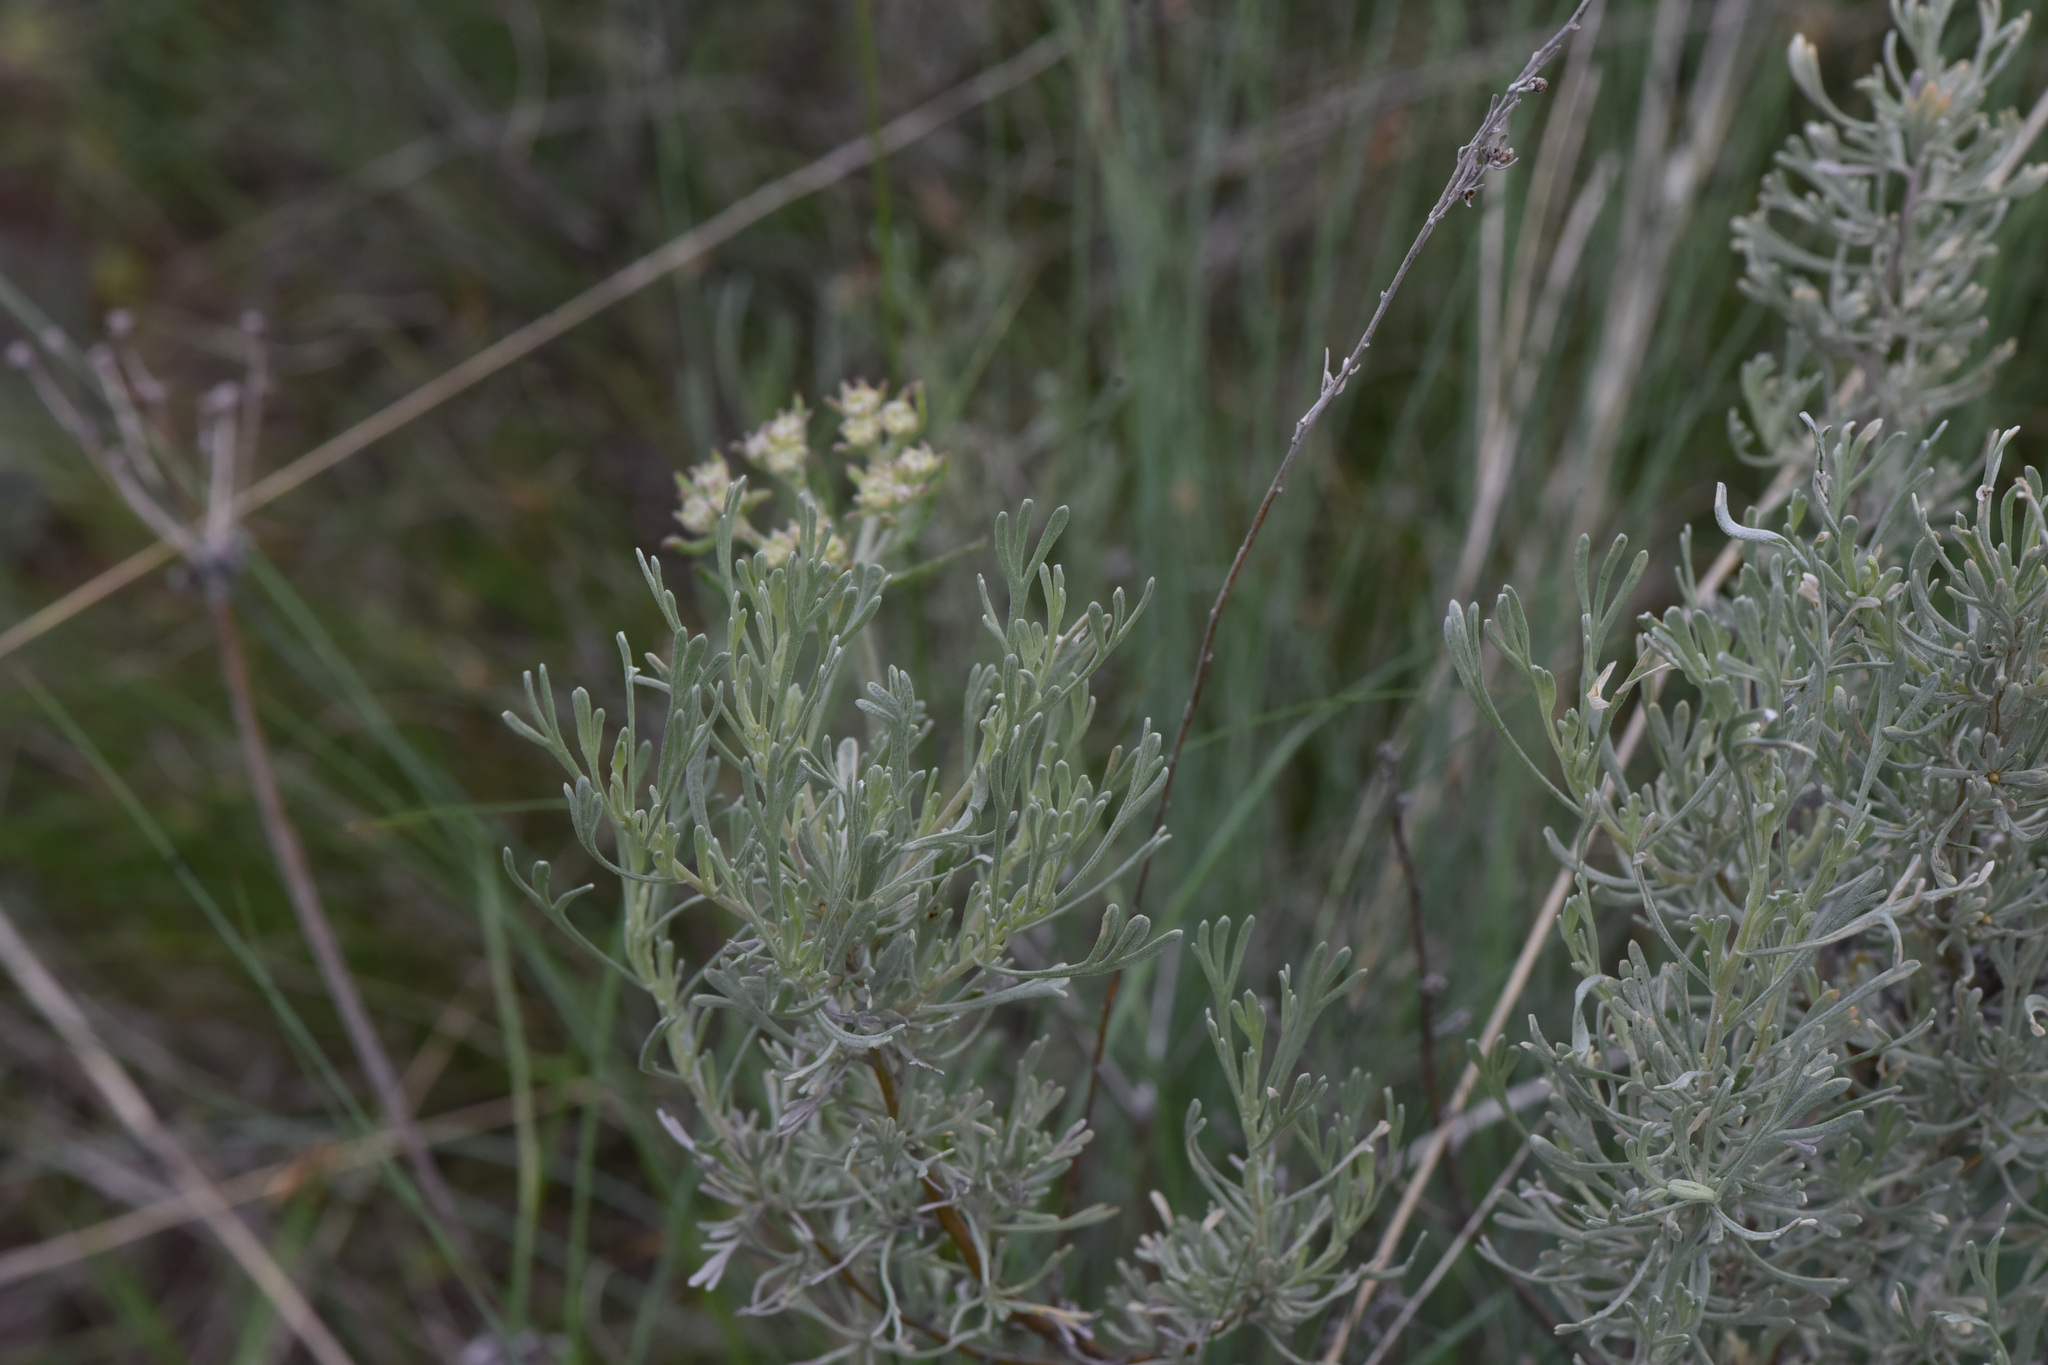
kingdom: Plantae
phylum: Tracheophyta
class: Magnoliopsida
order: Asterales
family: Asteraceae
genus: Artemisia
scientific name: Artemisia tripartita
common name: Three-tip sagebrush
